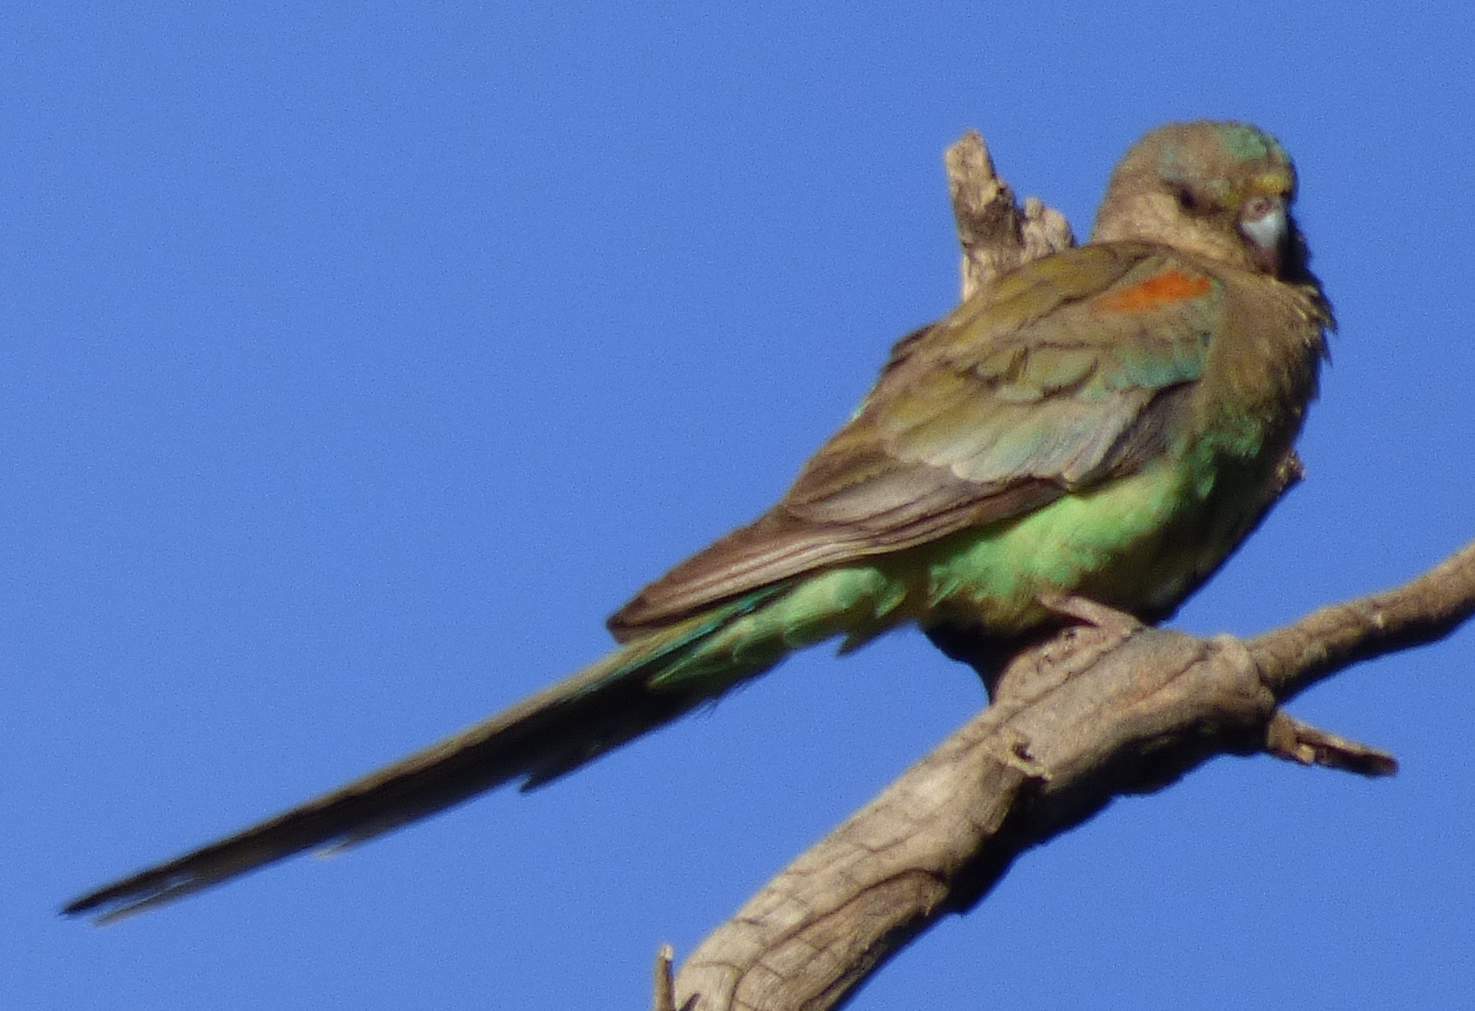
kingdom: Animalia
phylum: Chordata
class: Aves
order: Psittaciformes
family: Psittaculidae
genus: Psephotellus
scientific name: Psephotellus varius
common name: Mulga parrot
